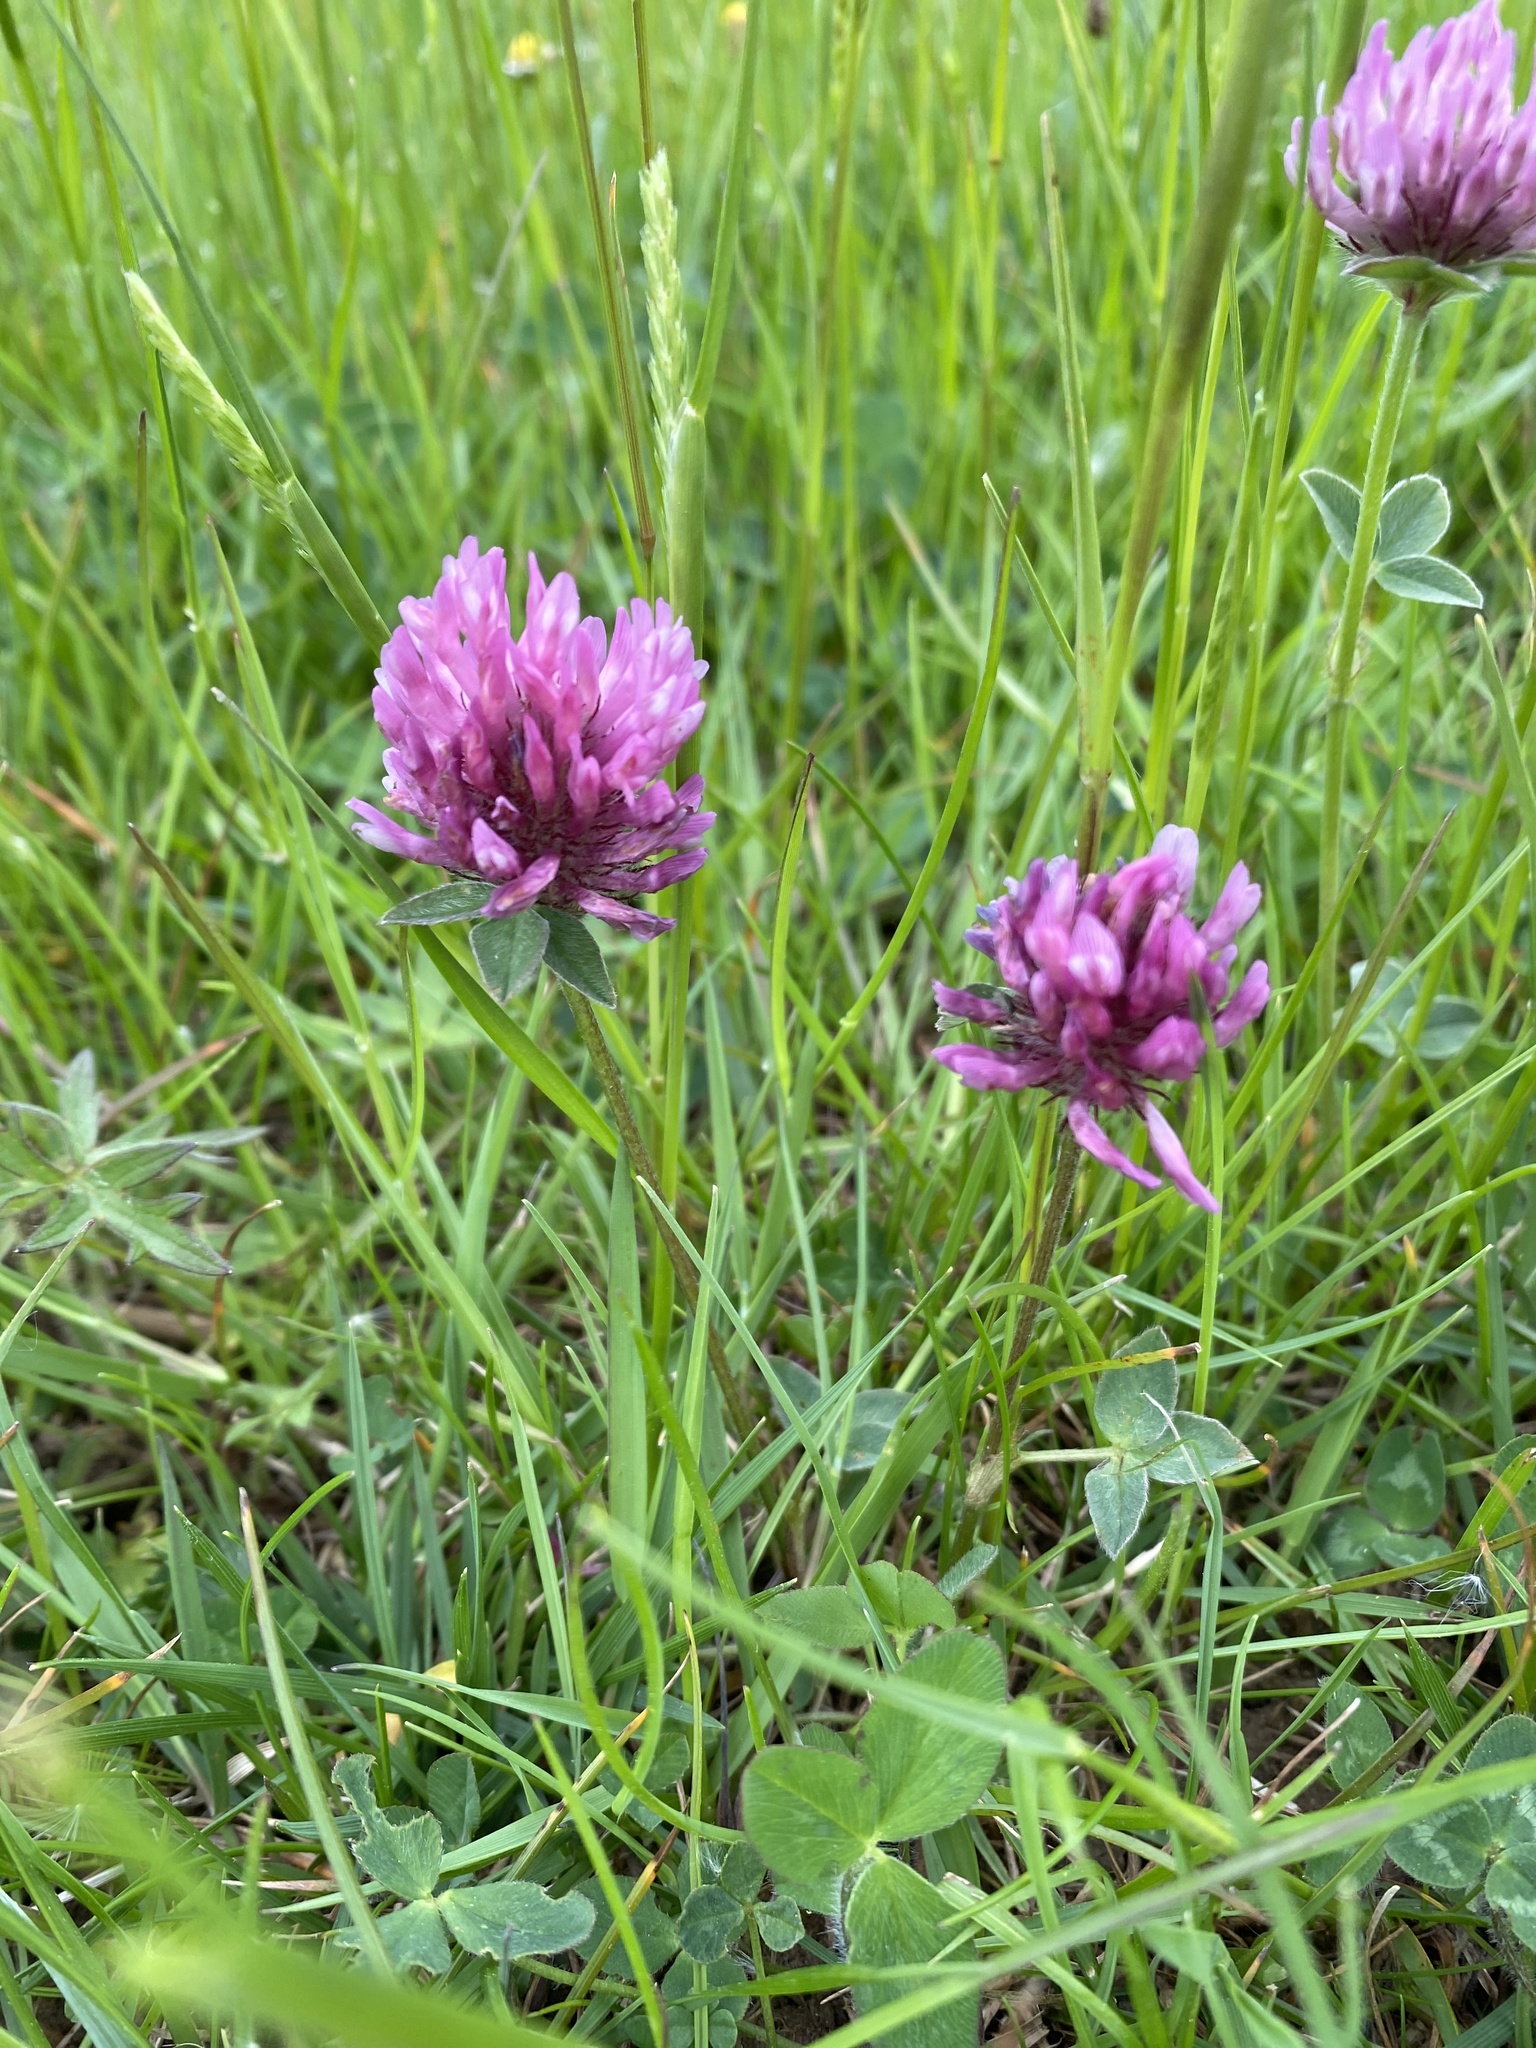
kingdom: Plantae
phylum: Tracheophyta
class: Magnoliopsida
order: Fabales
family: Fabaceae
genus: Trifolium
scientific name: Trifolium pratense
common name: Red clover
